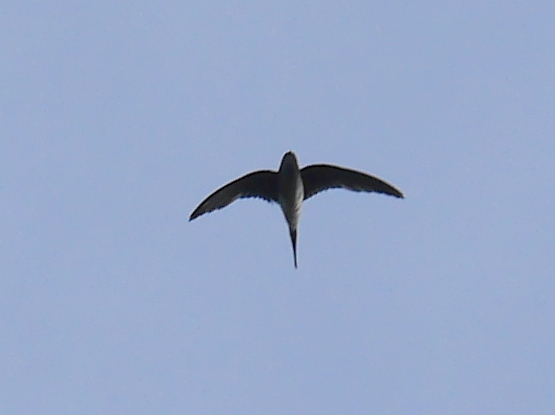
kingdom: Animalia
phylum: Chordata
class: Aves
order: Apodiformes
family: Hemiprocnidae
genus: Hemiprocne
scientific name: Hemiprocne longipennis
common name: Grey-rumped treeswift
